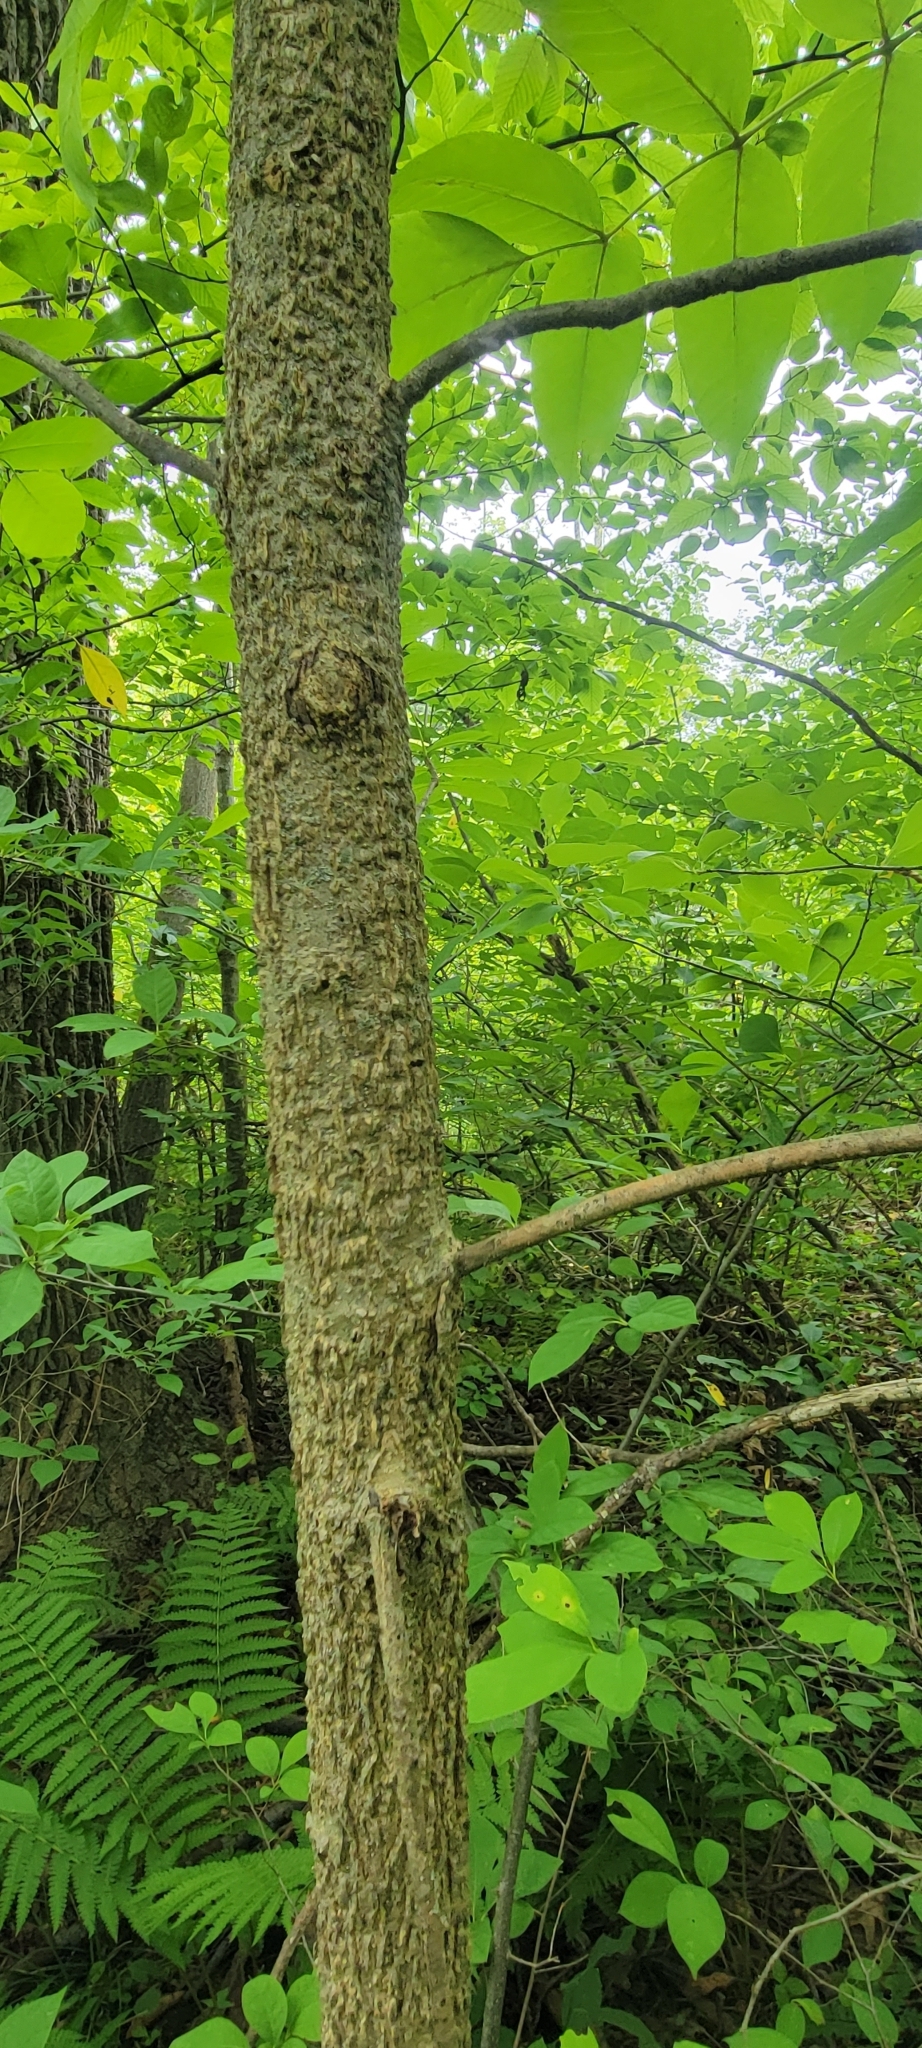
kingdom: Plantae
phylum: Tracheophyta
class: Magnoliopsida
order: Lamiales
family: Oleaceae
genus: Fraxinus
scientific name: Fraxinus nigra
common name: Black ash
